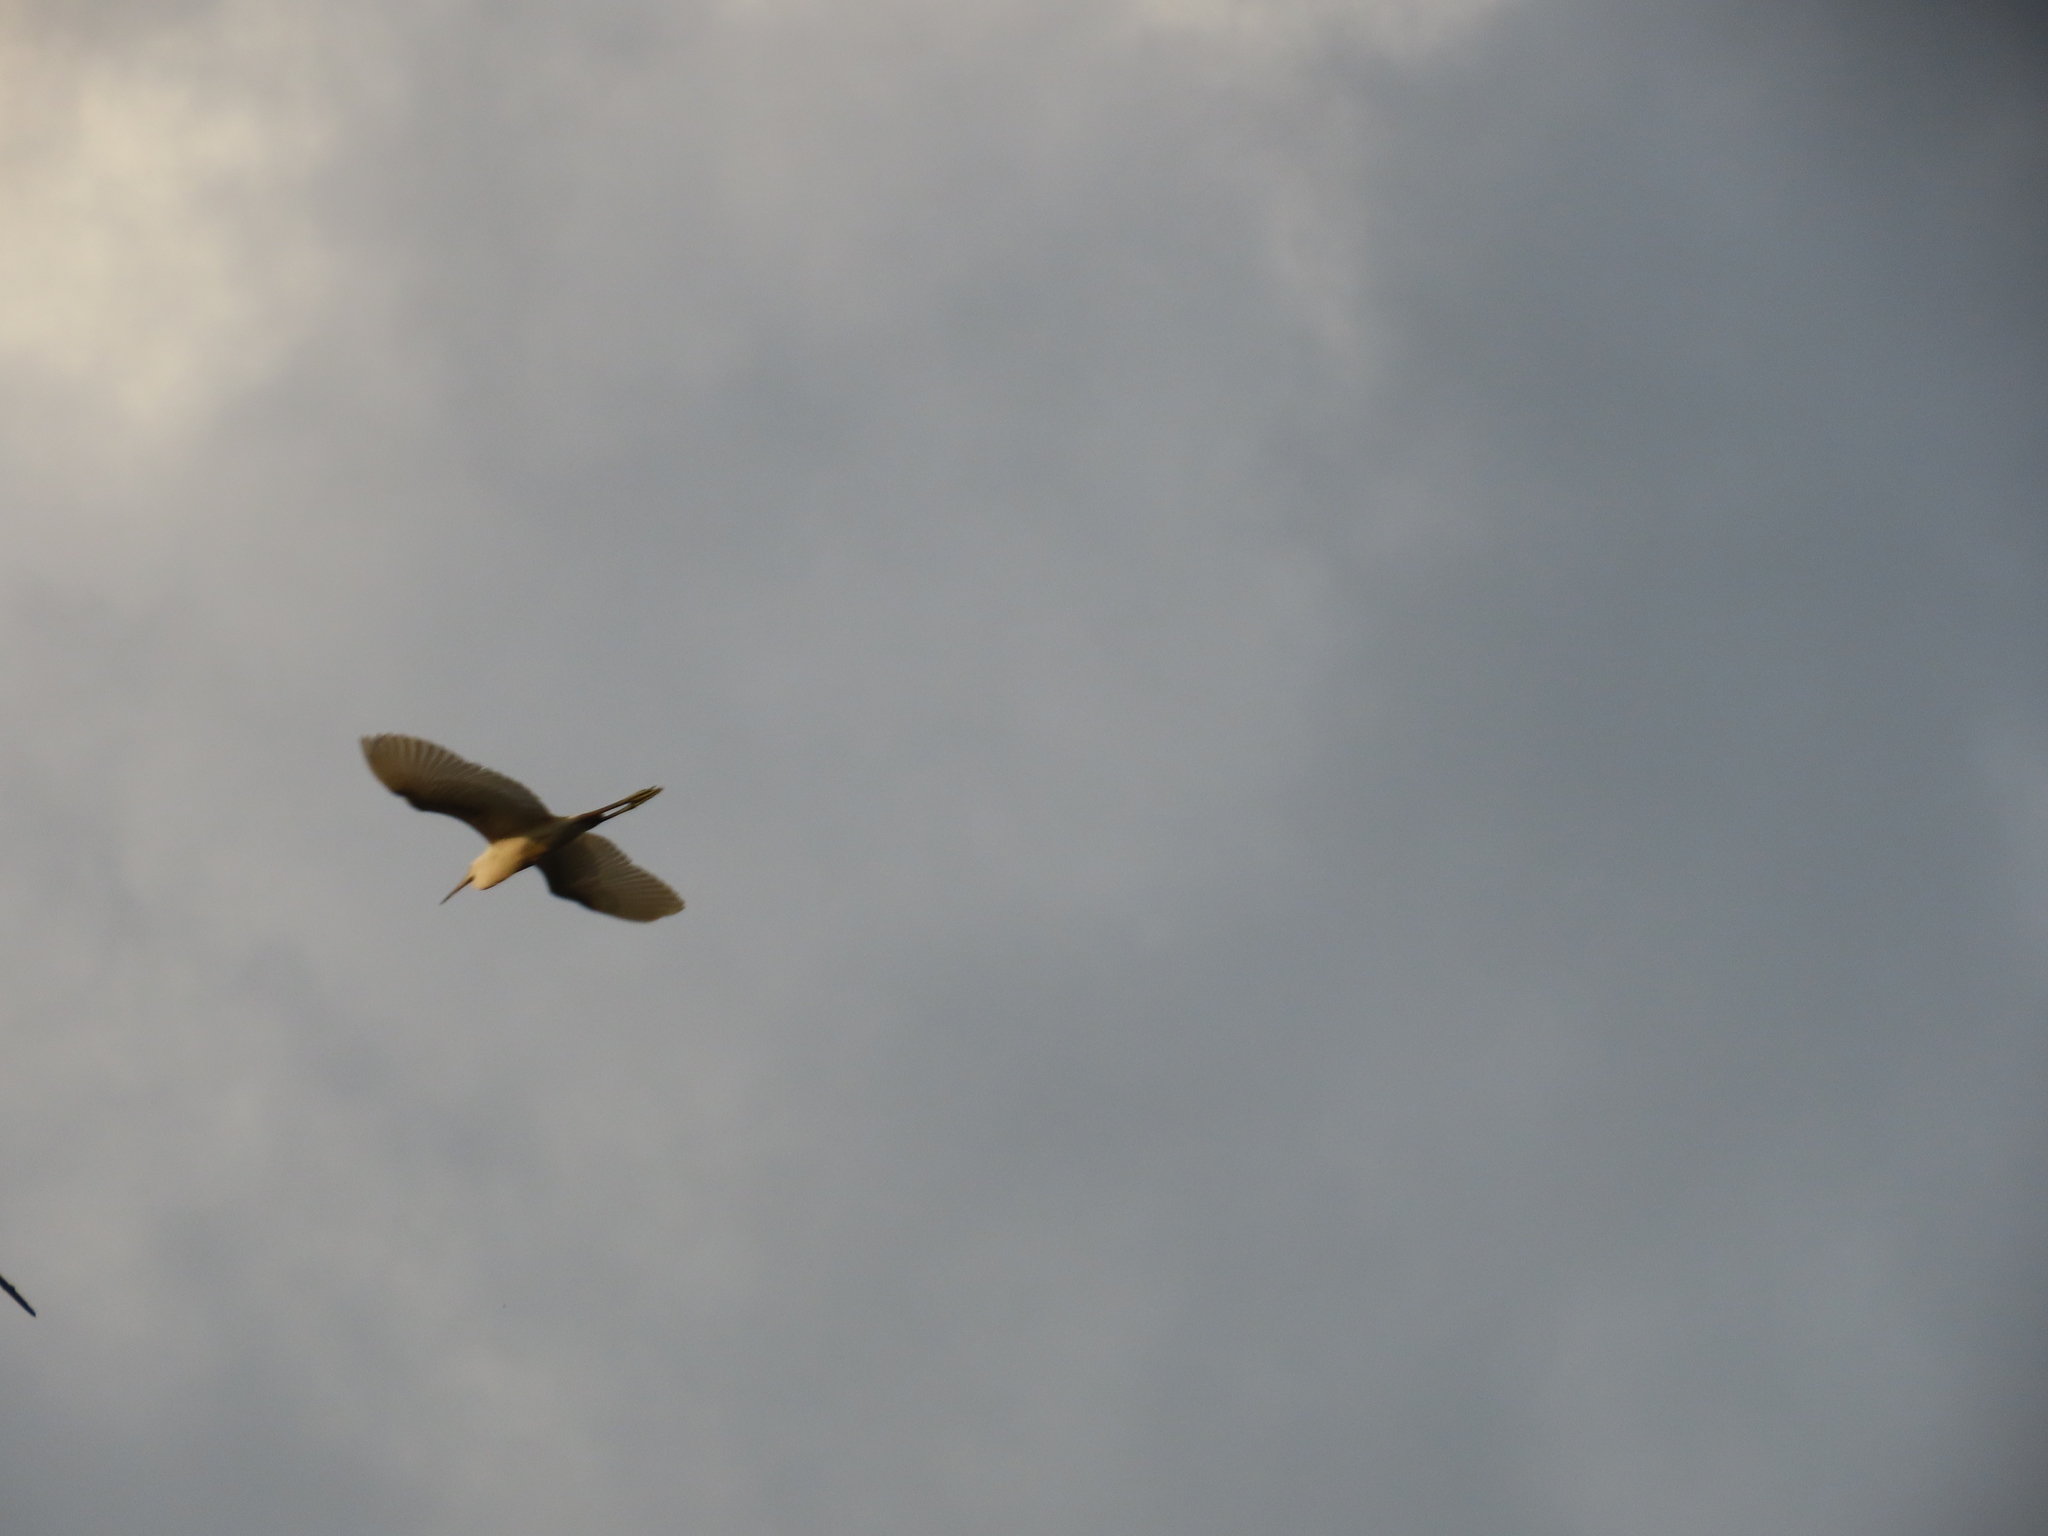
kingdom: Animalia
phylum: Chordata
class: Aves
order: Pelecaniformes
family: Ardeidae
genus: Egretta
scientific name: Egretta intermedia
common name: Intermediate egret
